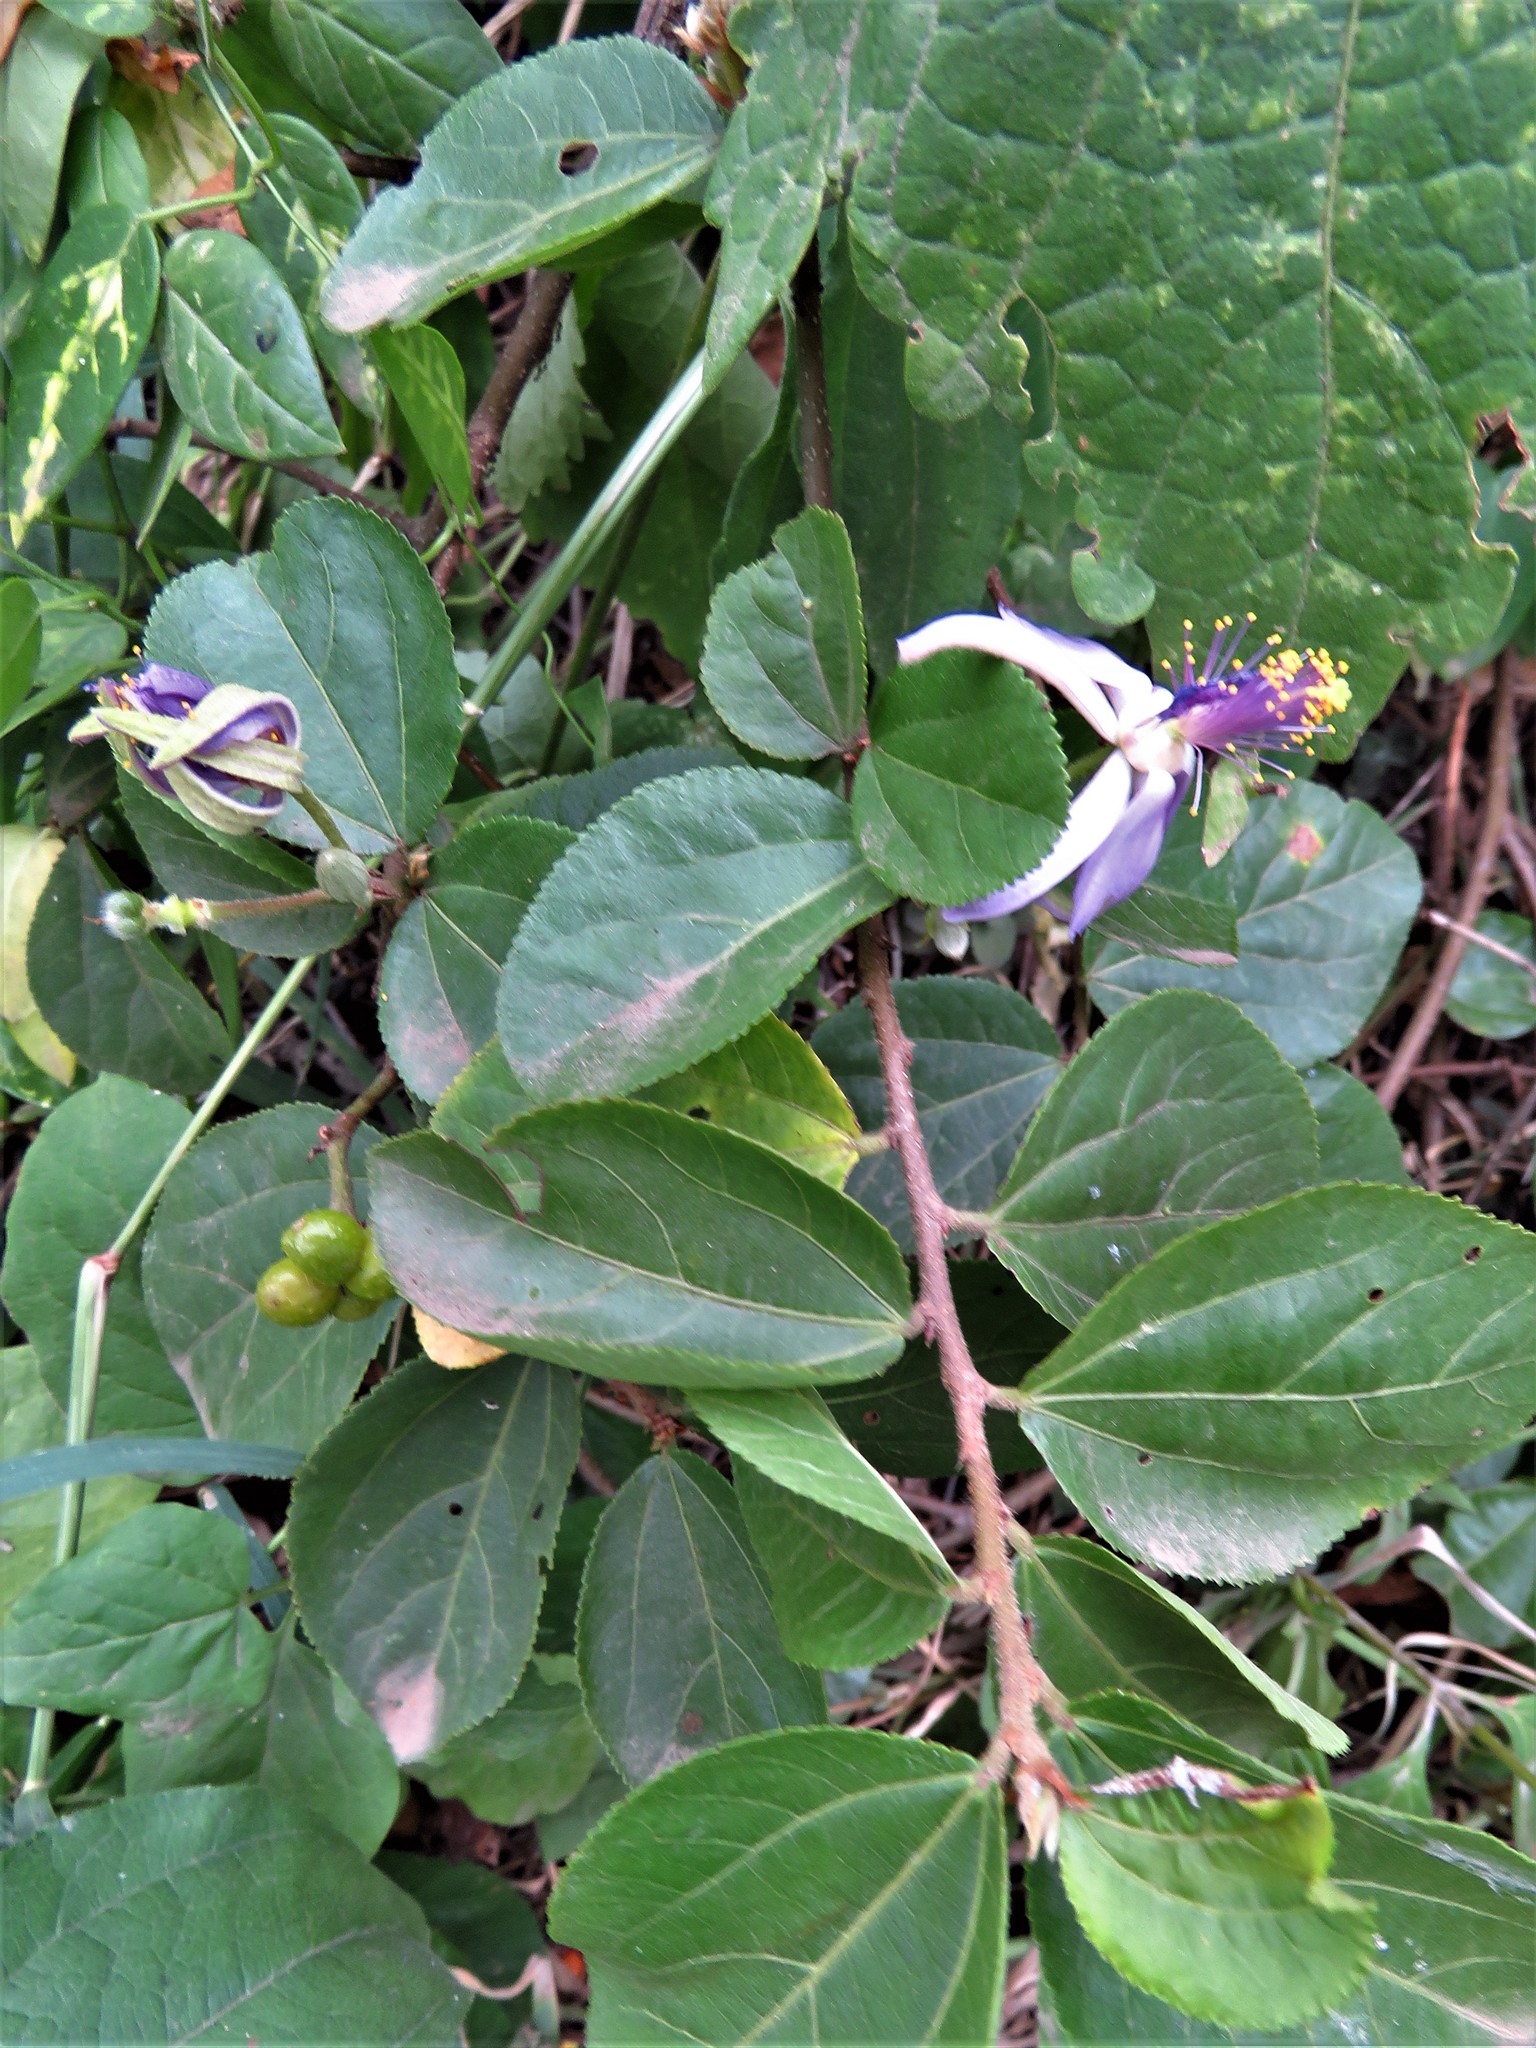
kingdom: Plantae
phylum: Tracheophyta
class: Magnoliopsida
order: Malvales
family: Malvaceae
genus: Grewia
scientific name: Grewia occidentalis
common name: Crossberry
